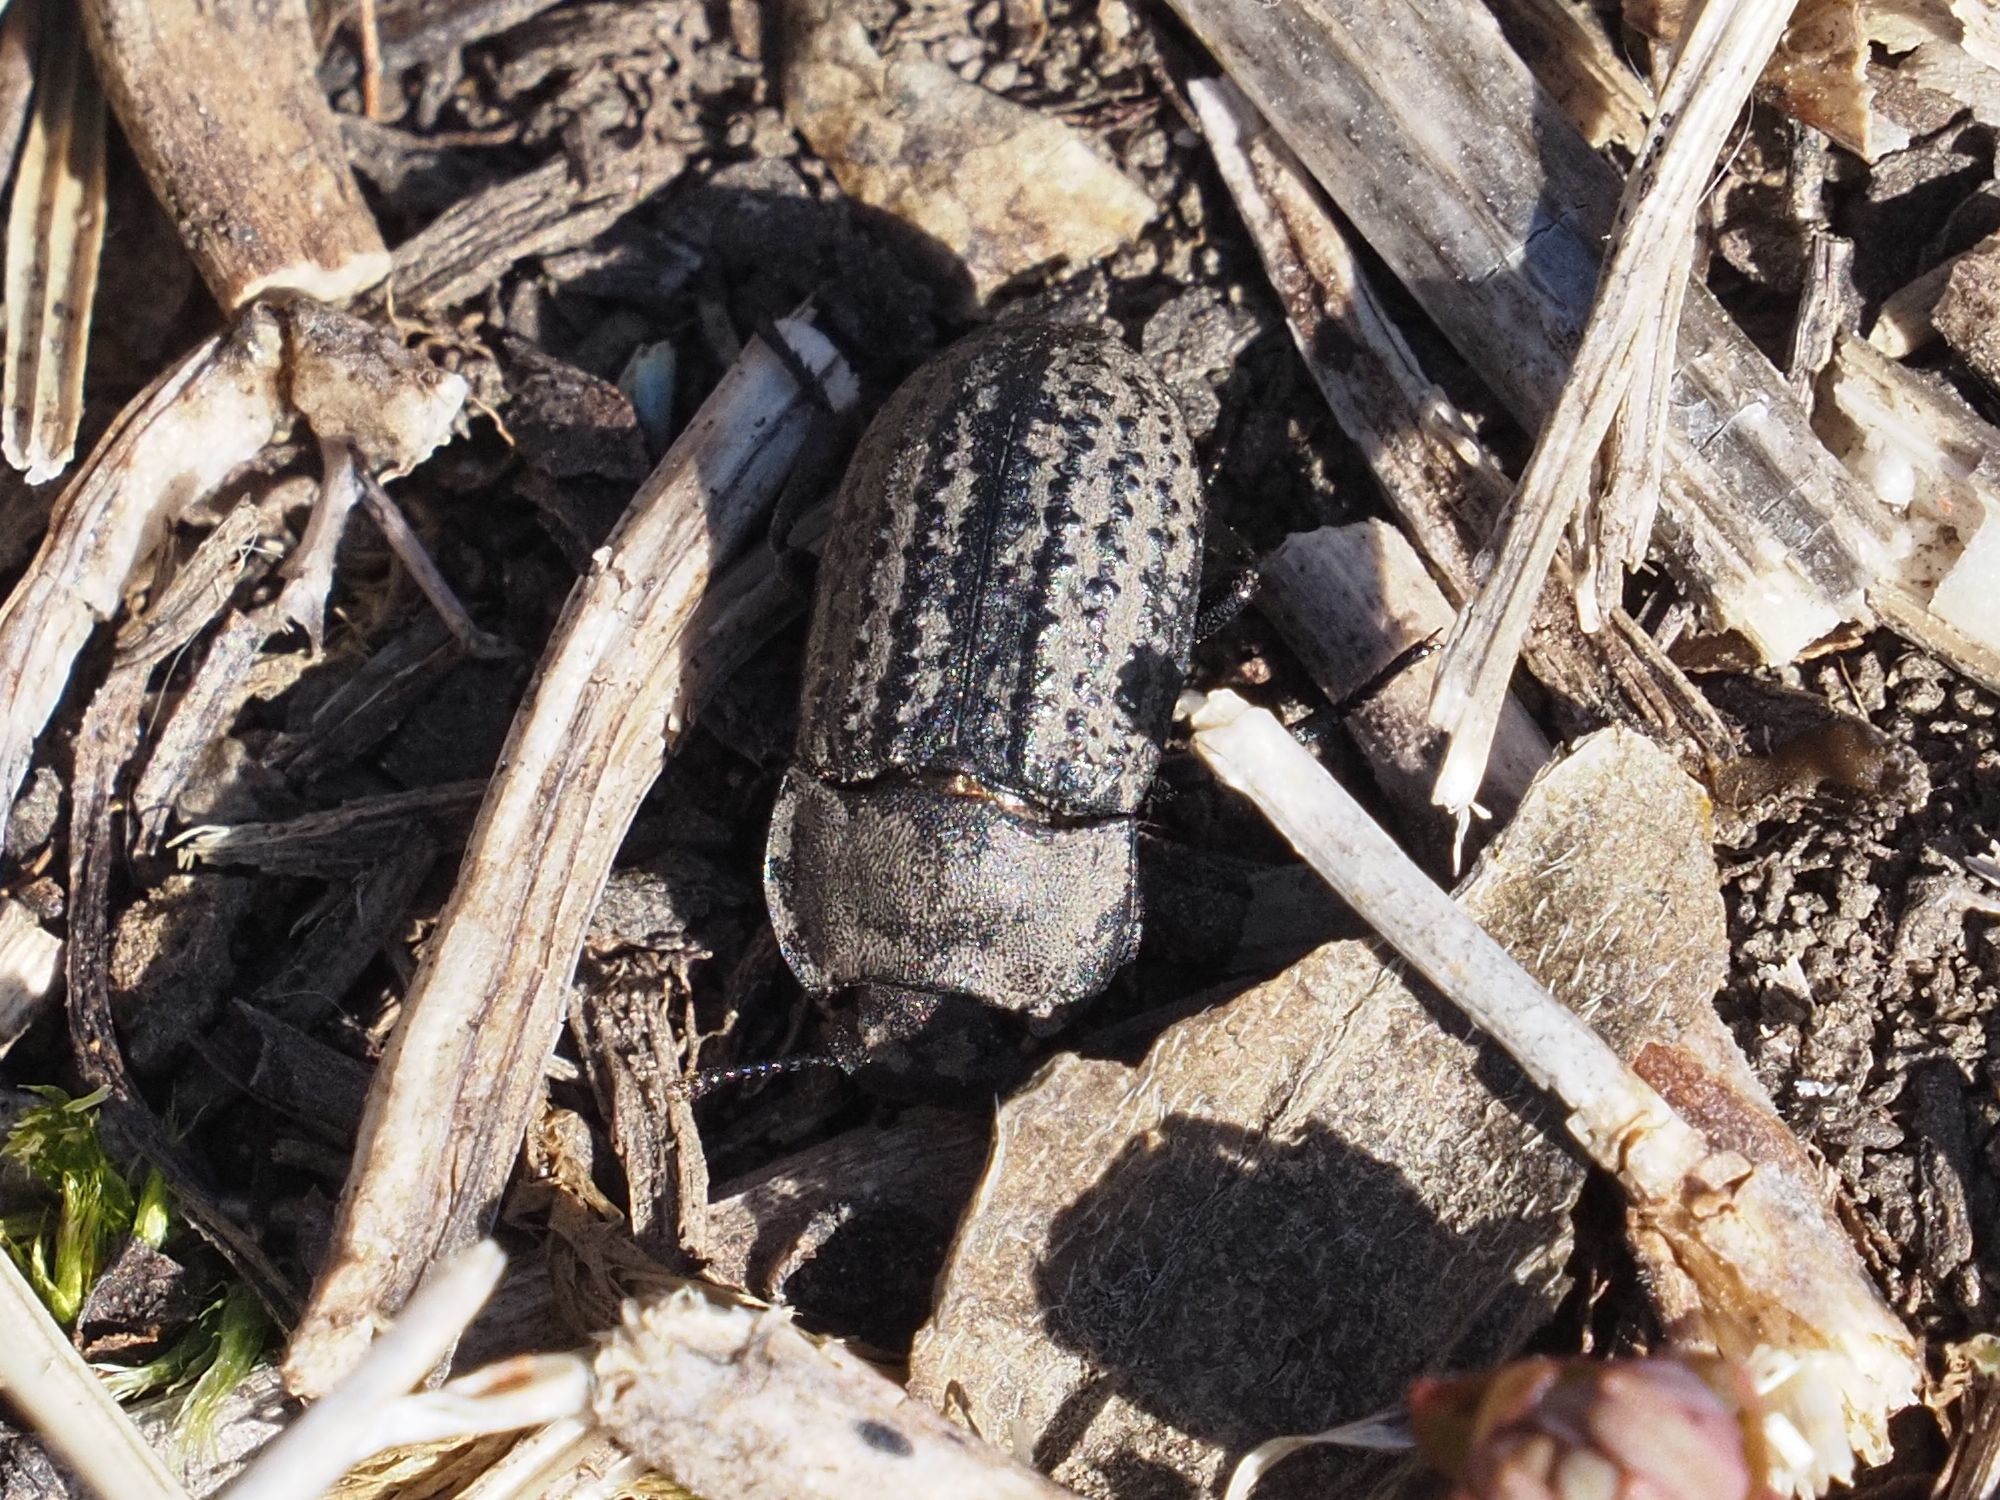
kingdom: Animalia
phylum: Arthropoda
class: Insecta
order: Coleoptera
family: Tenebrionidae
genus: Opatrum
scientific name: Opatrum sabulosum
